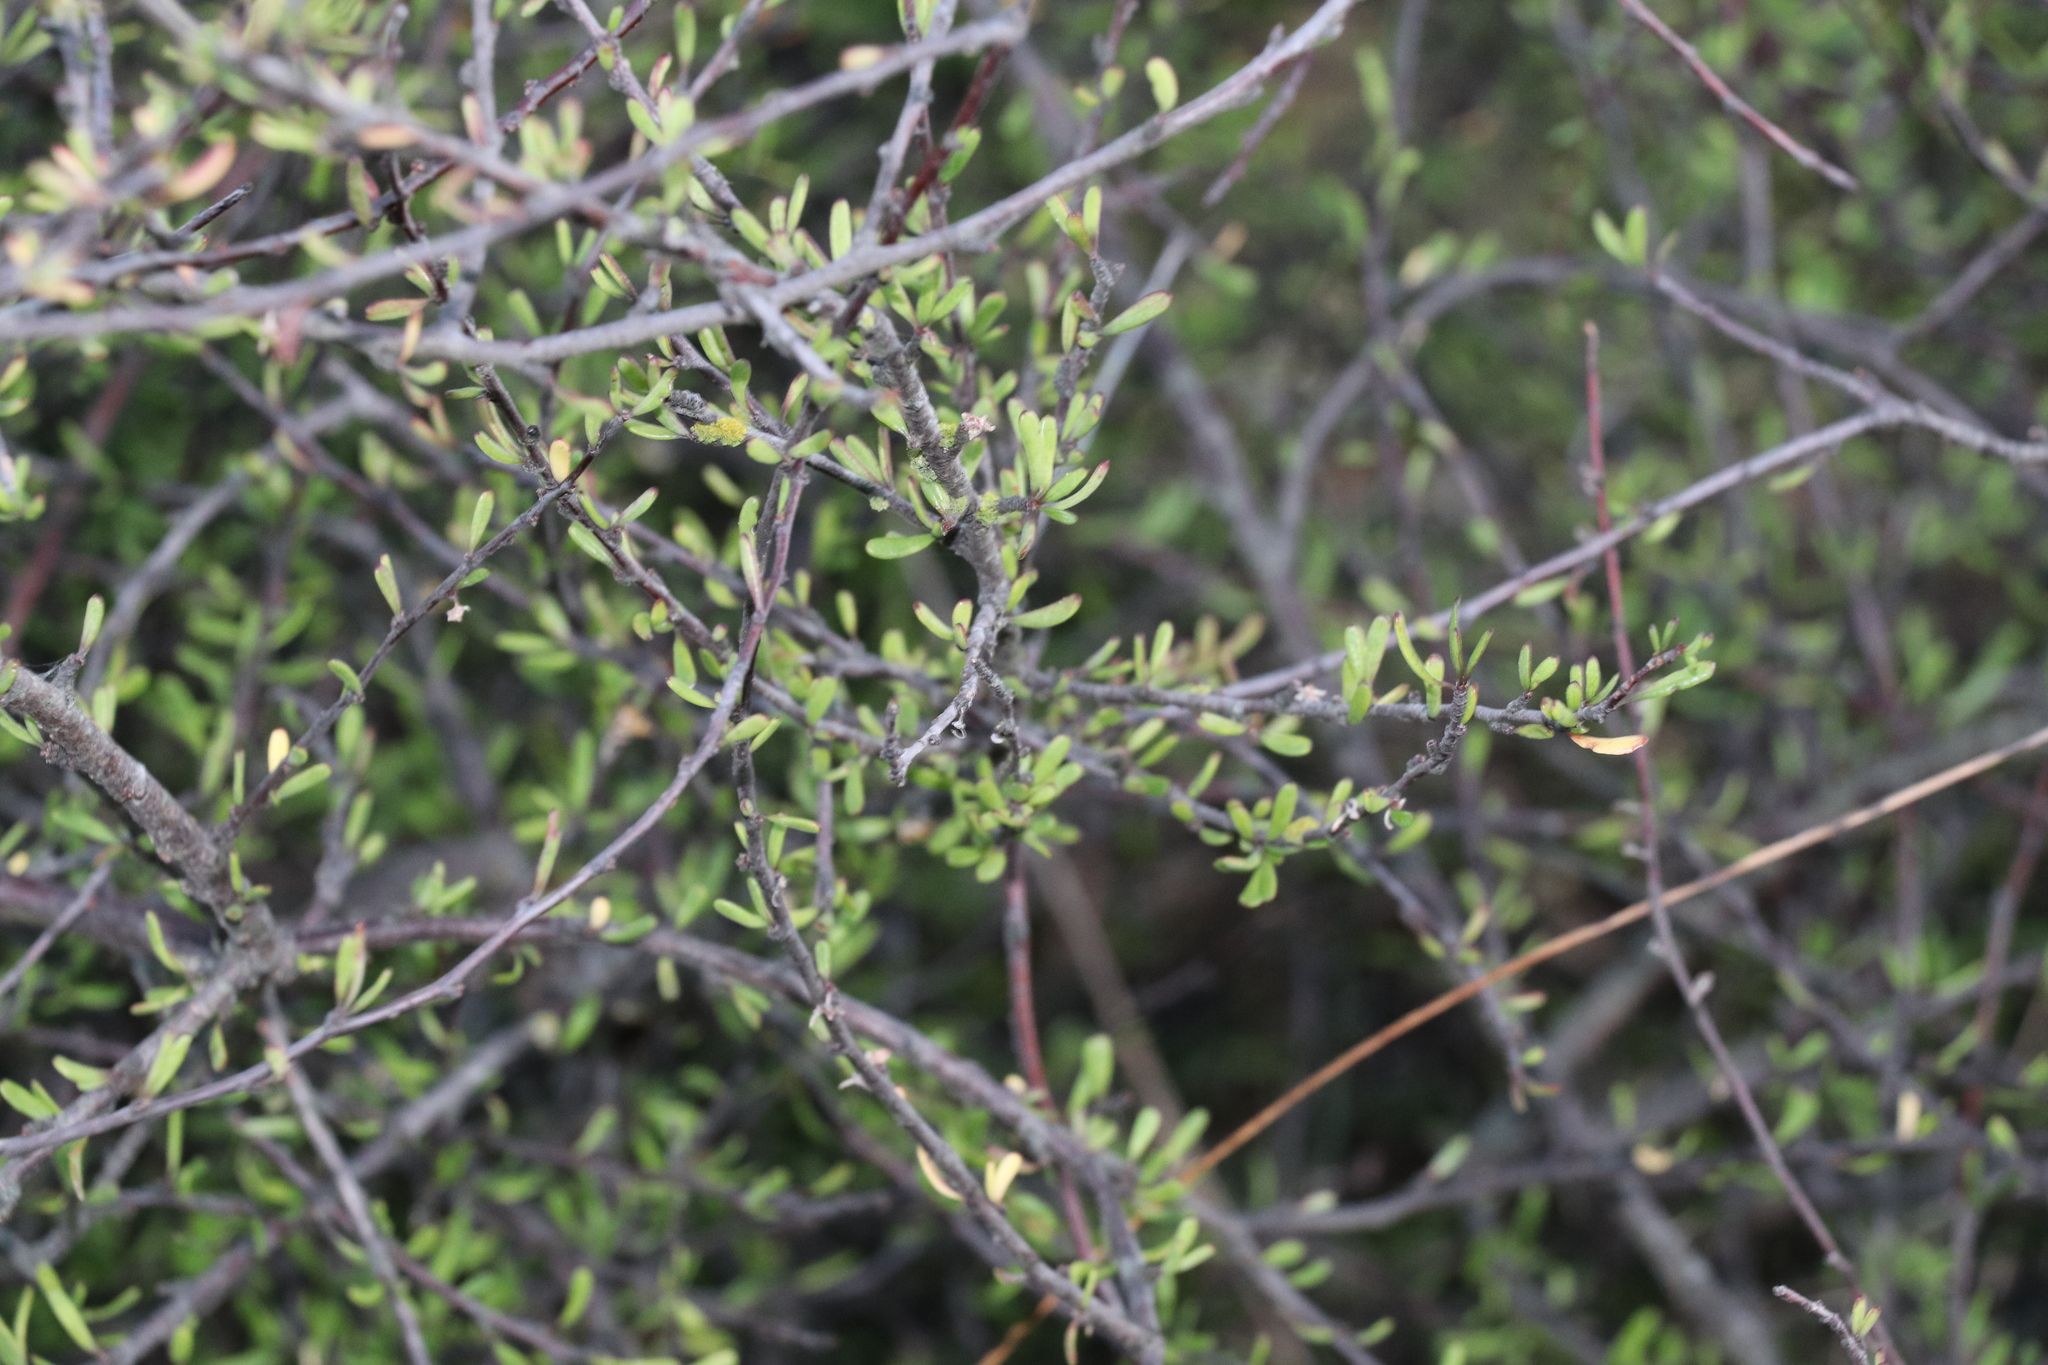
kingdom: Plantae
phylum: Tracheophyta
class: Magnoliopsida
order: Malvales
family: Malvaceae
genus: Plagianthus
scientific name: Plagianthus divaricatus
